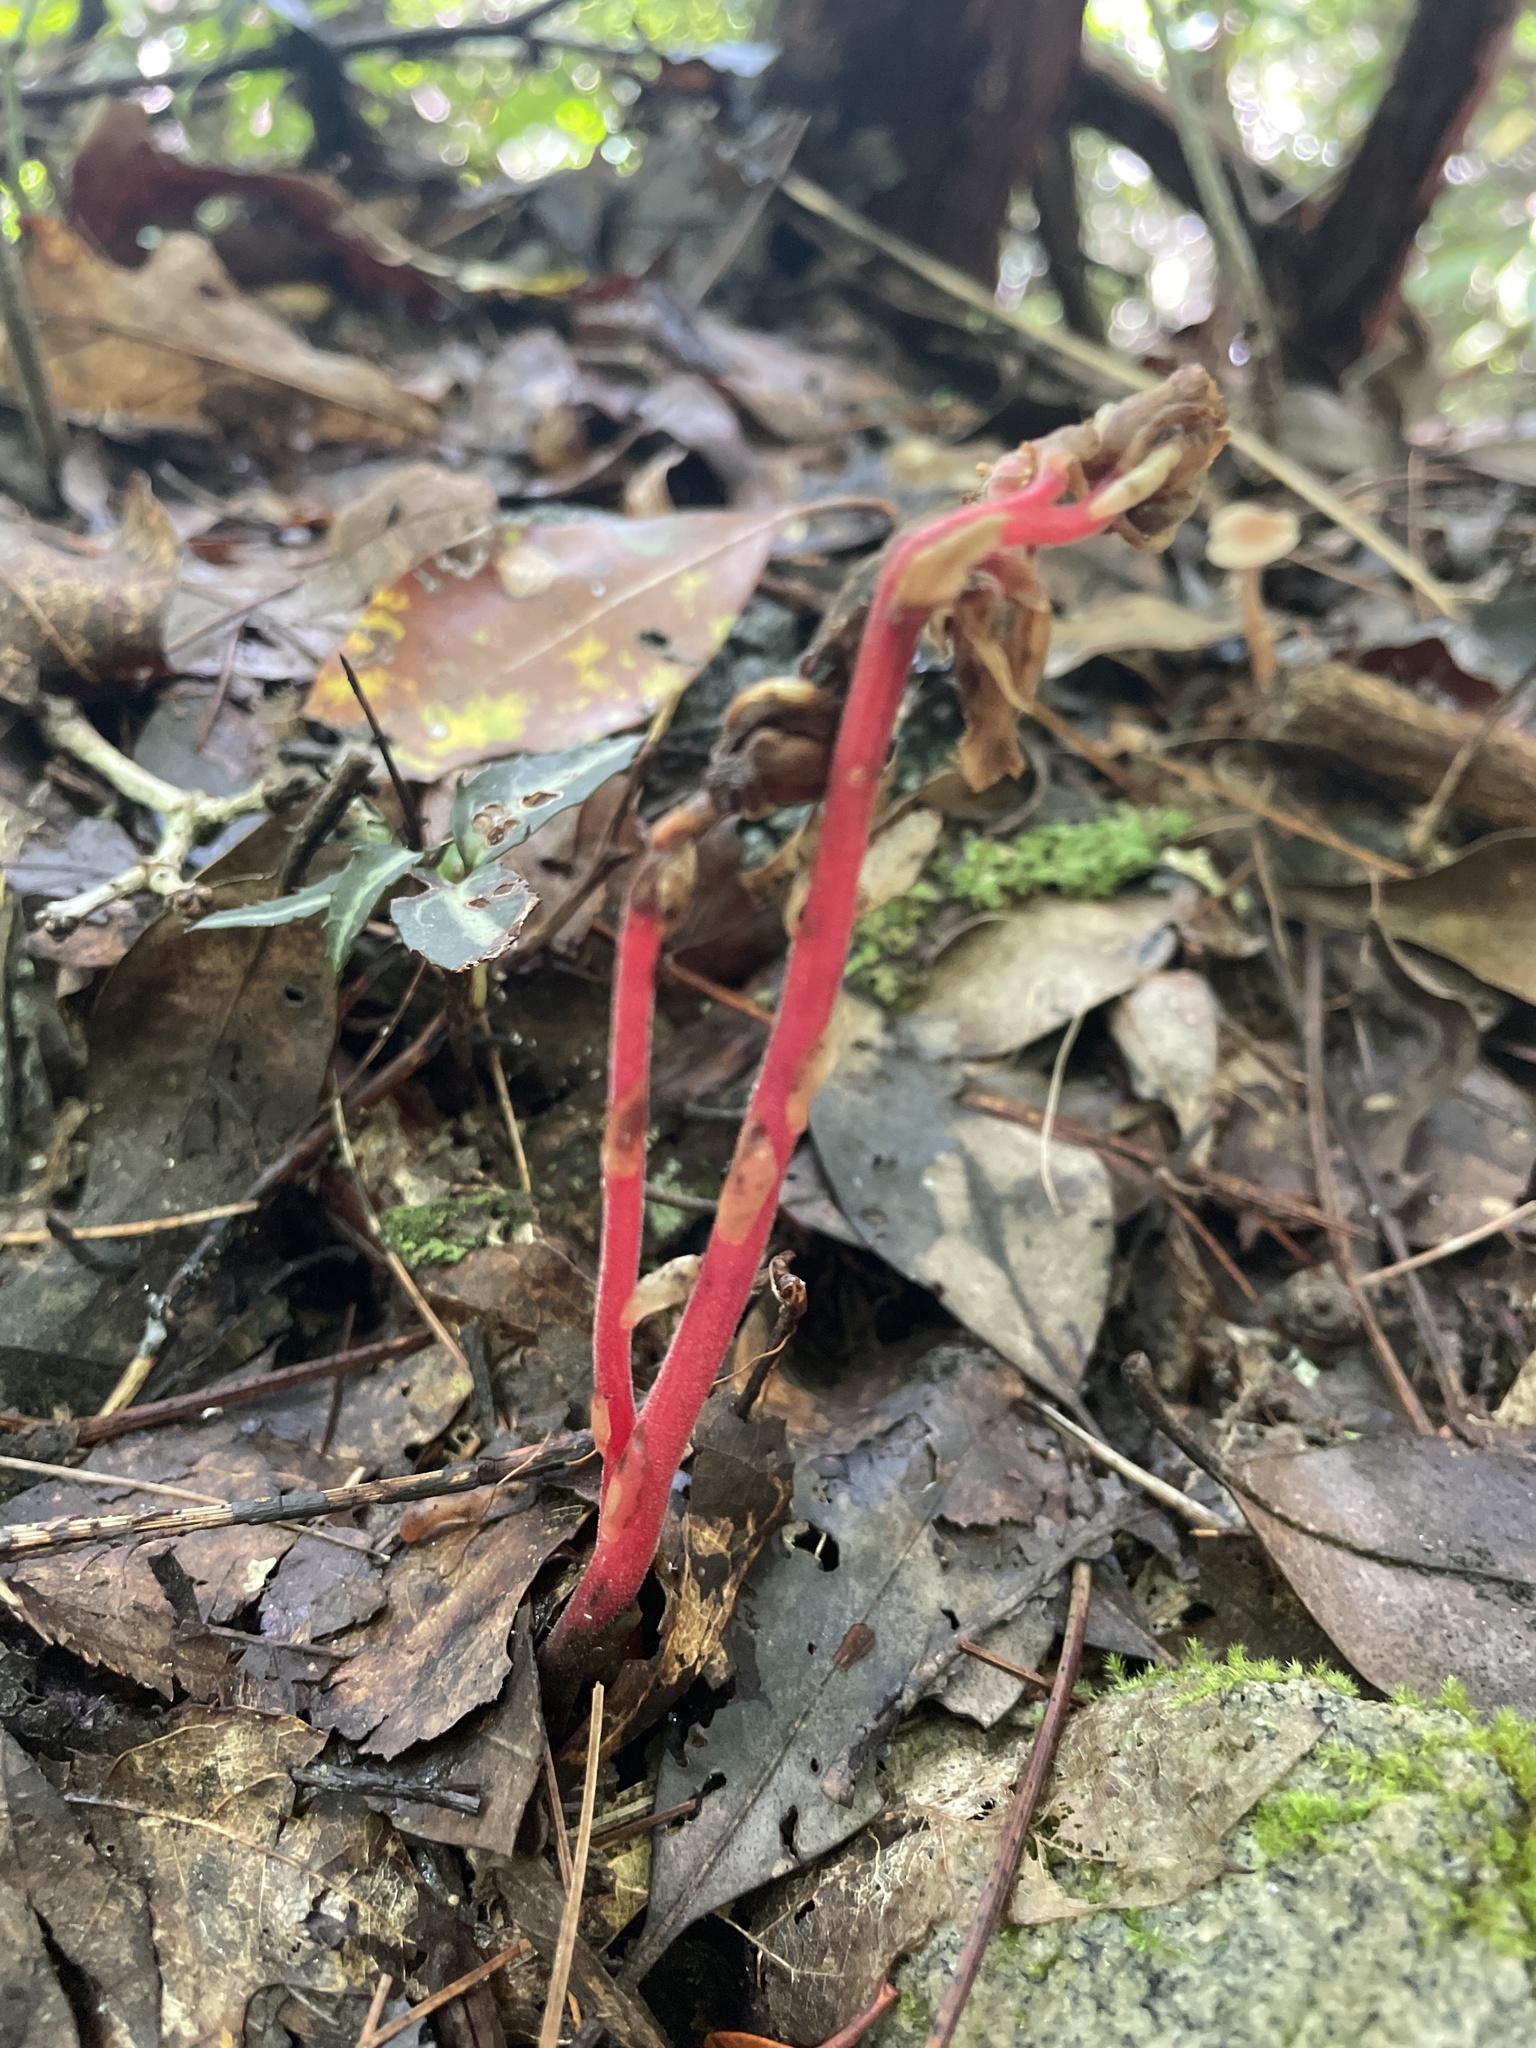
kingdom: Plantae
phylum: Tracheophyta
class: Magnoliopsida
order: Ericales
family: Ericaceae
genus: Hypopitys
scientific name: Hypopitys monotropa
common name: Yellow bird's-nest
